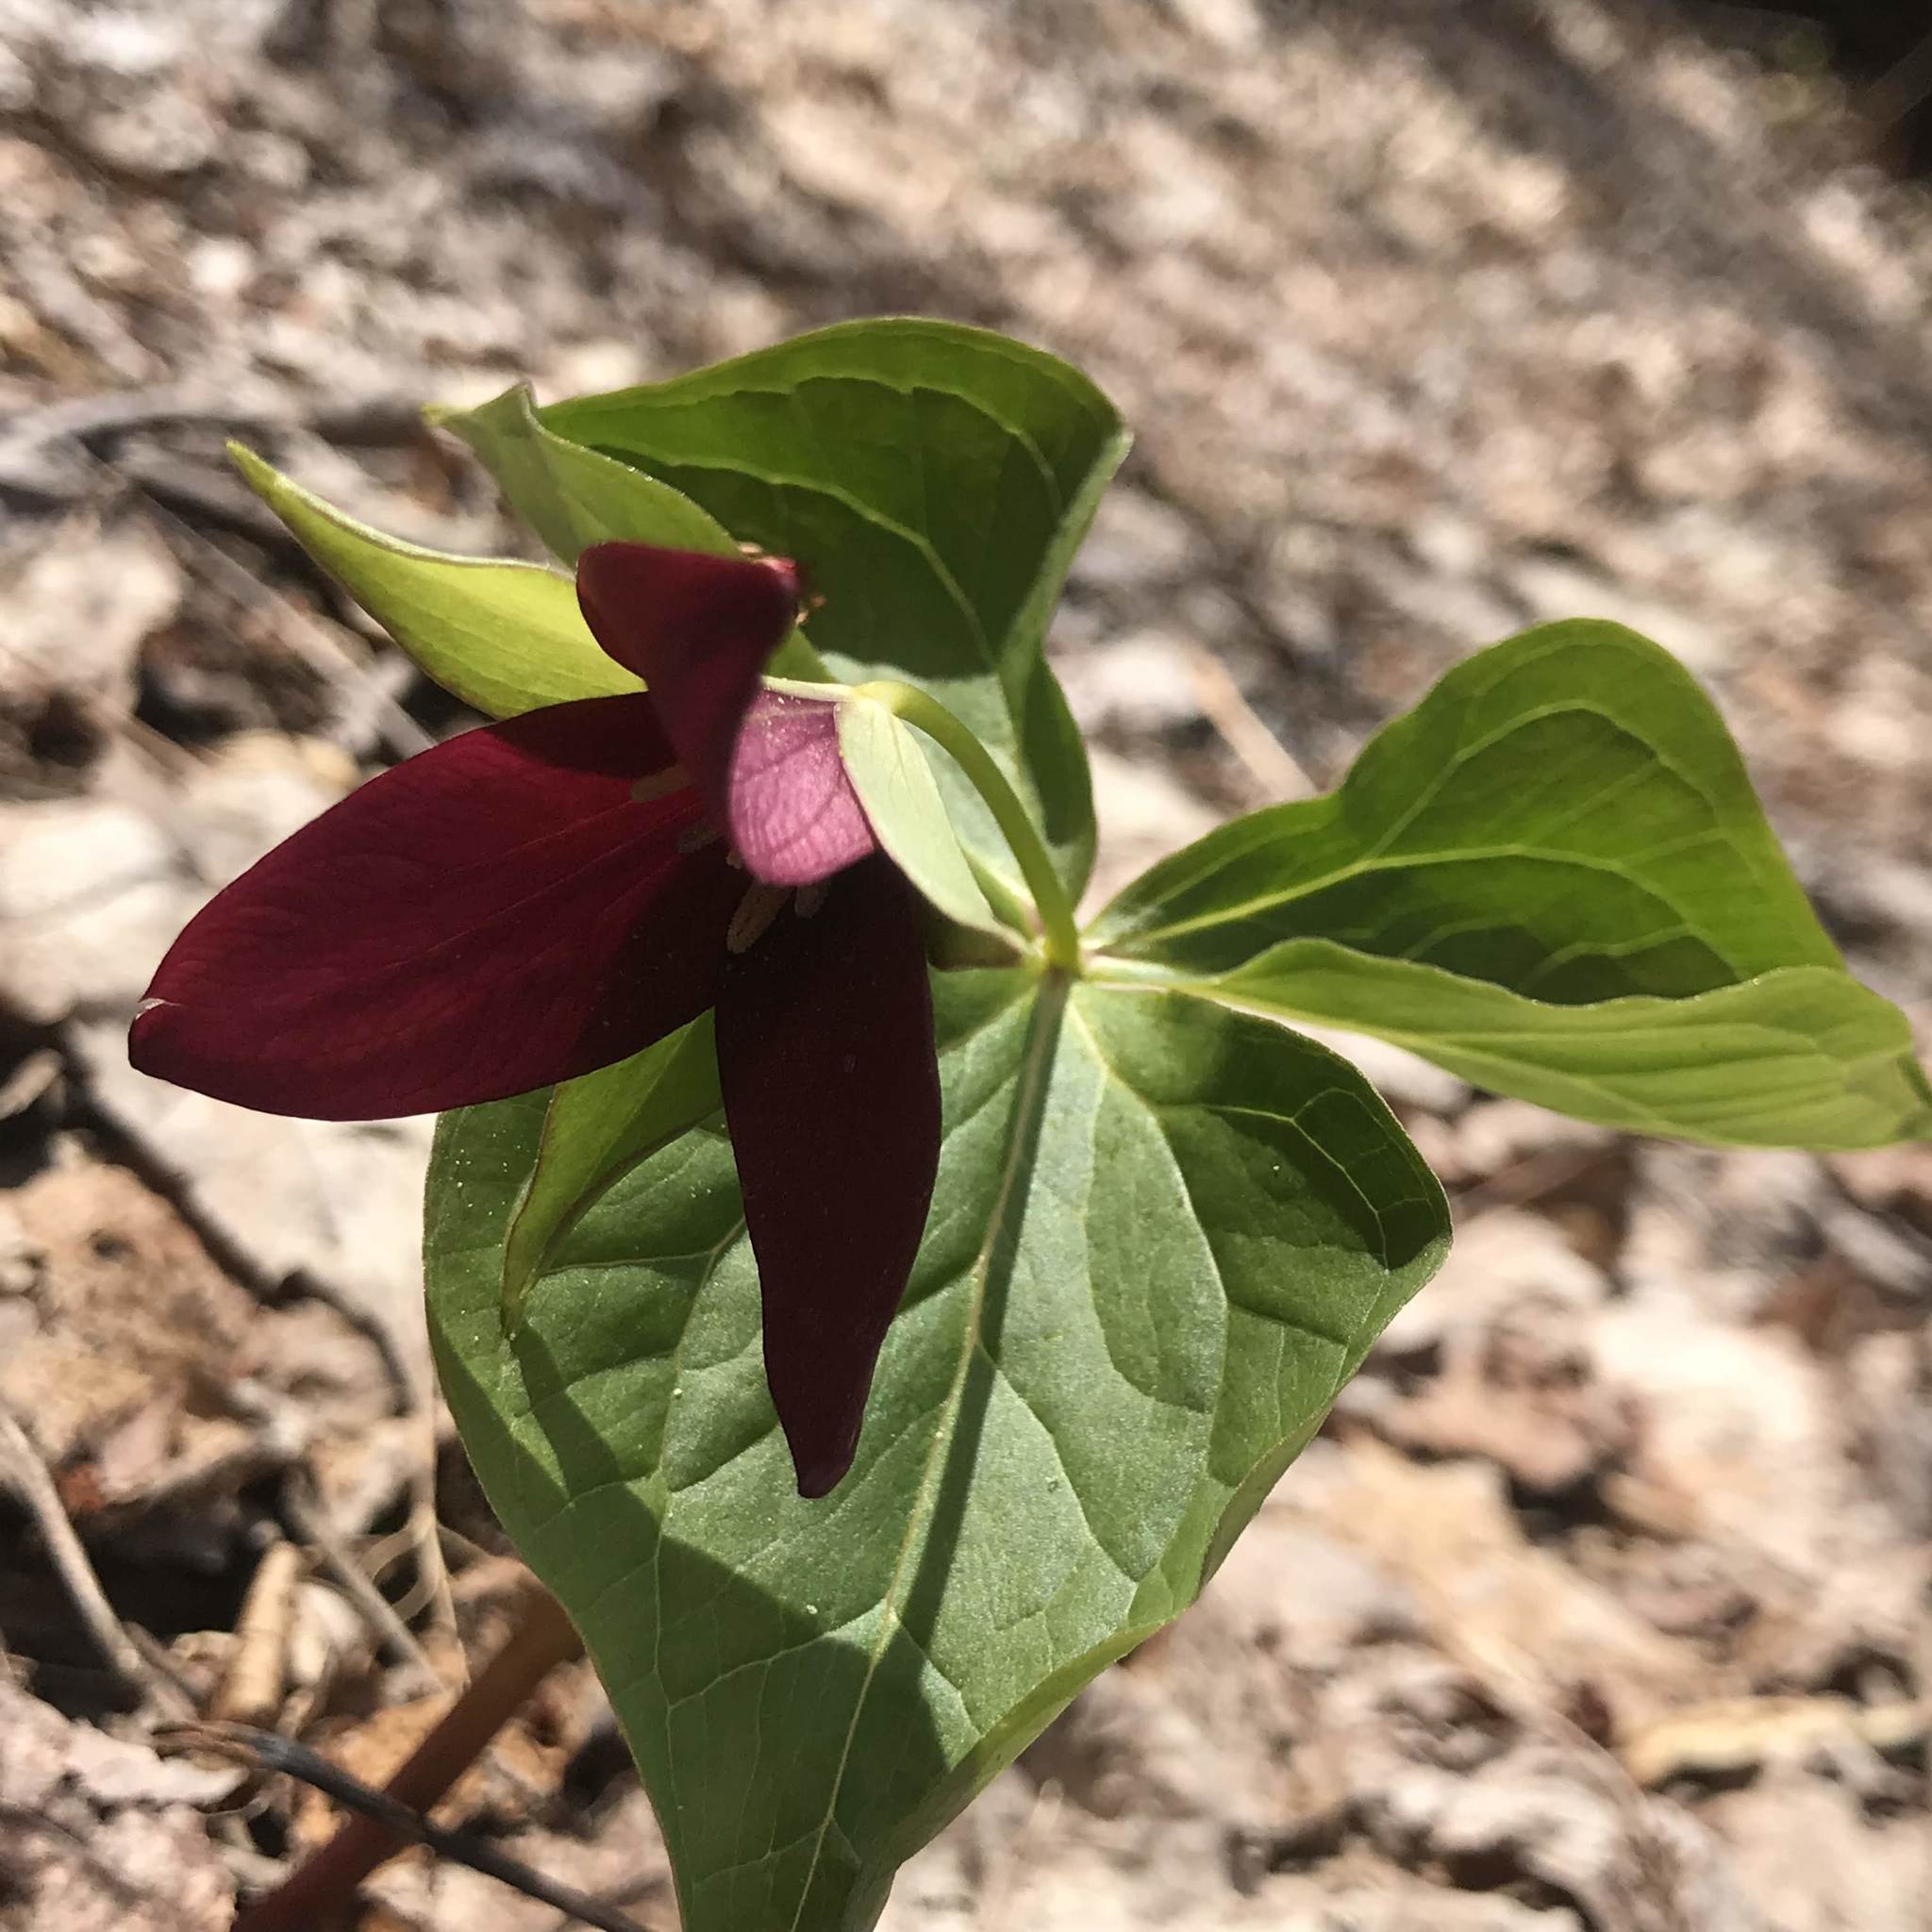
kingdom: Plantae
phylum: Tracheophyta
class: Liliopsida
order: Liliales
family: Melanthiaceae
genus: Trillium
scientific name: Trillium erectum
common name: Purple trillium
